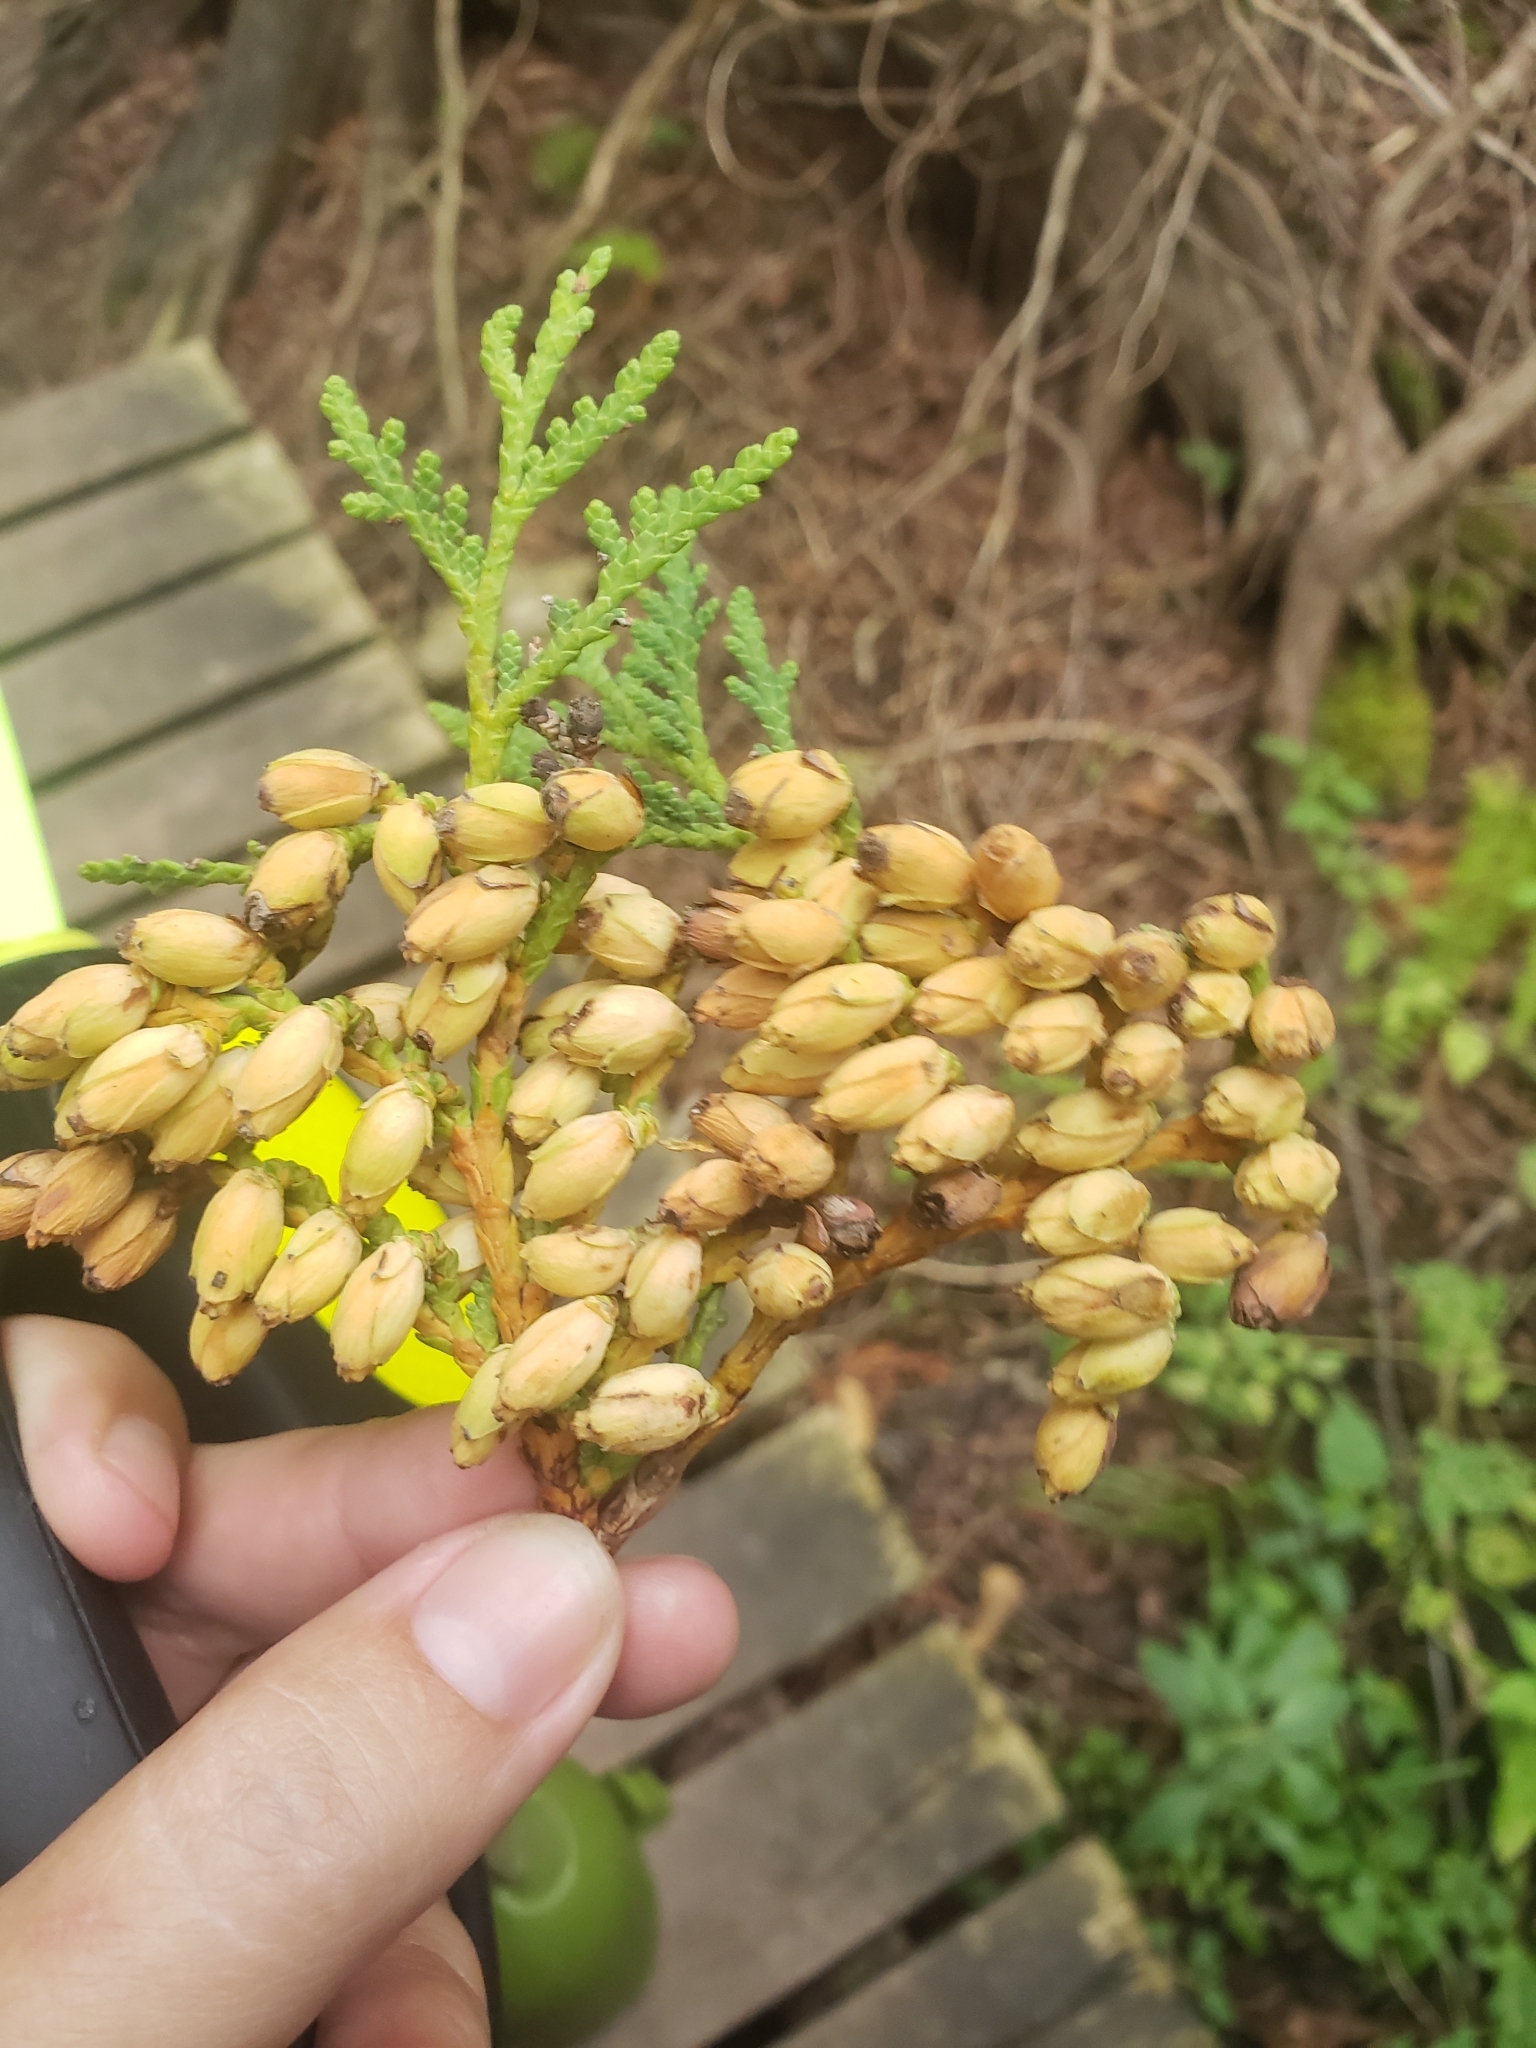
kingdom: Plantae
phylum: Tracheophyta
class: Pinopsida
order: Pinales
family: Cupressaceae
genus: Thuja
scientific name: Thuja occidentalis
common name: Northern white-cedar
